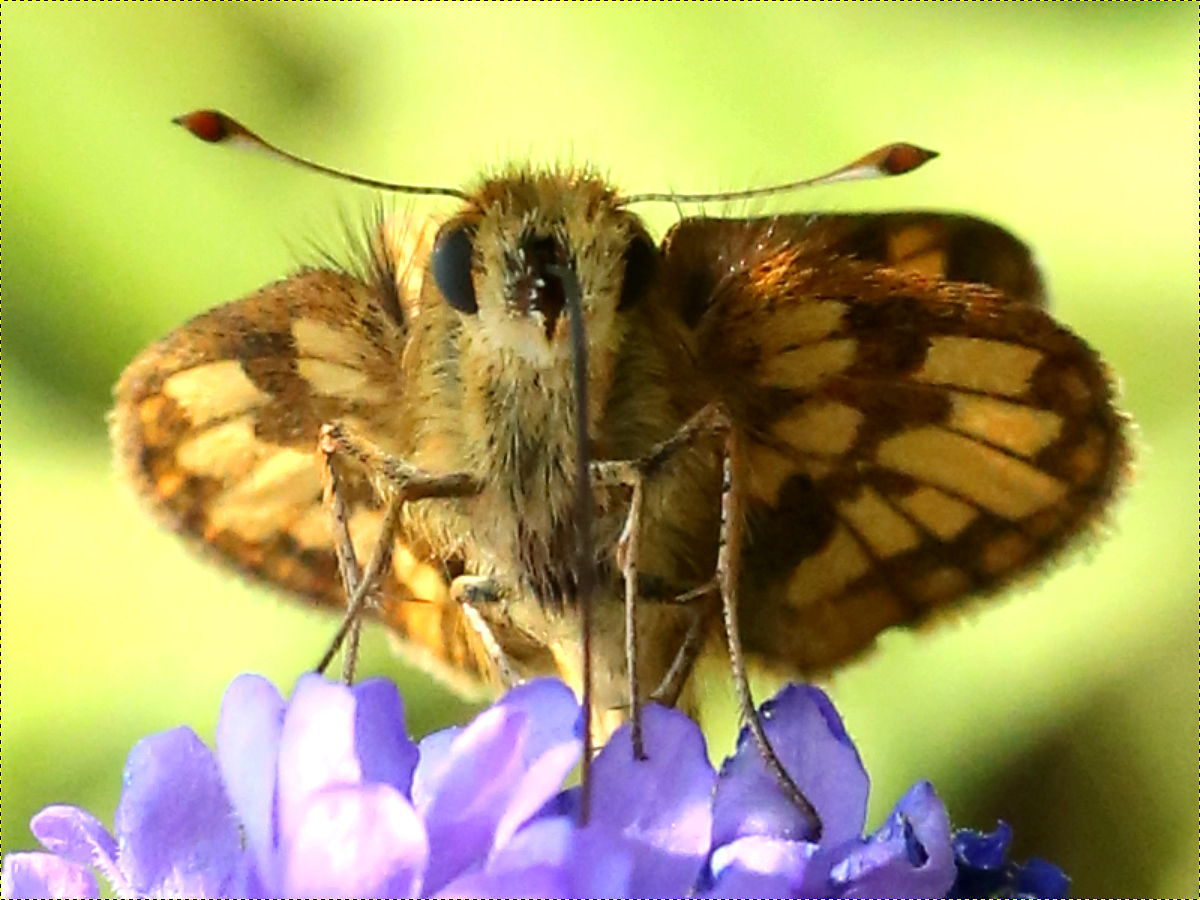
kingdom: Animalia
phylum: Arthropoda
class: Insecta
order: Lepidoptera
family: Hesperiidae
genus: Polites
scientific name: Polites coras
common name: Peck's skipper
